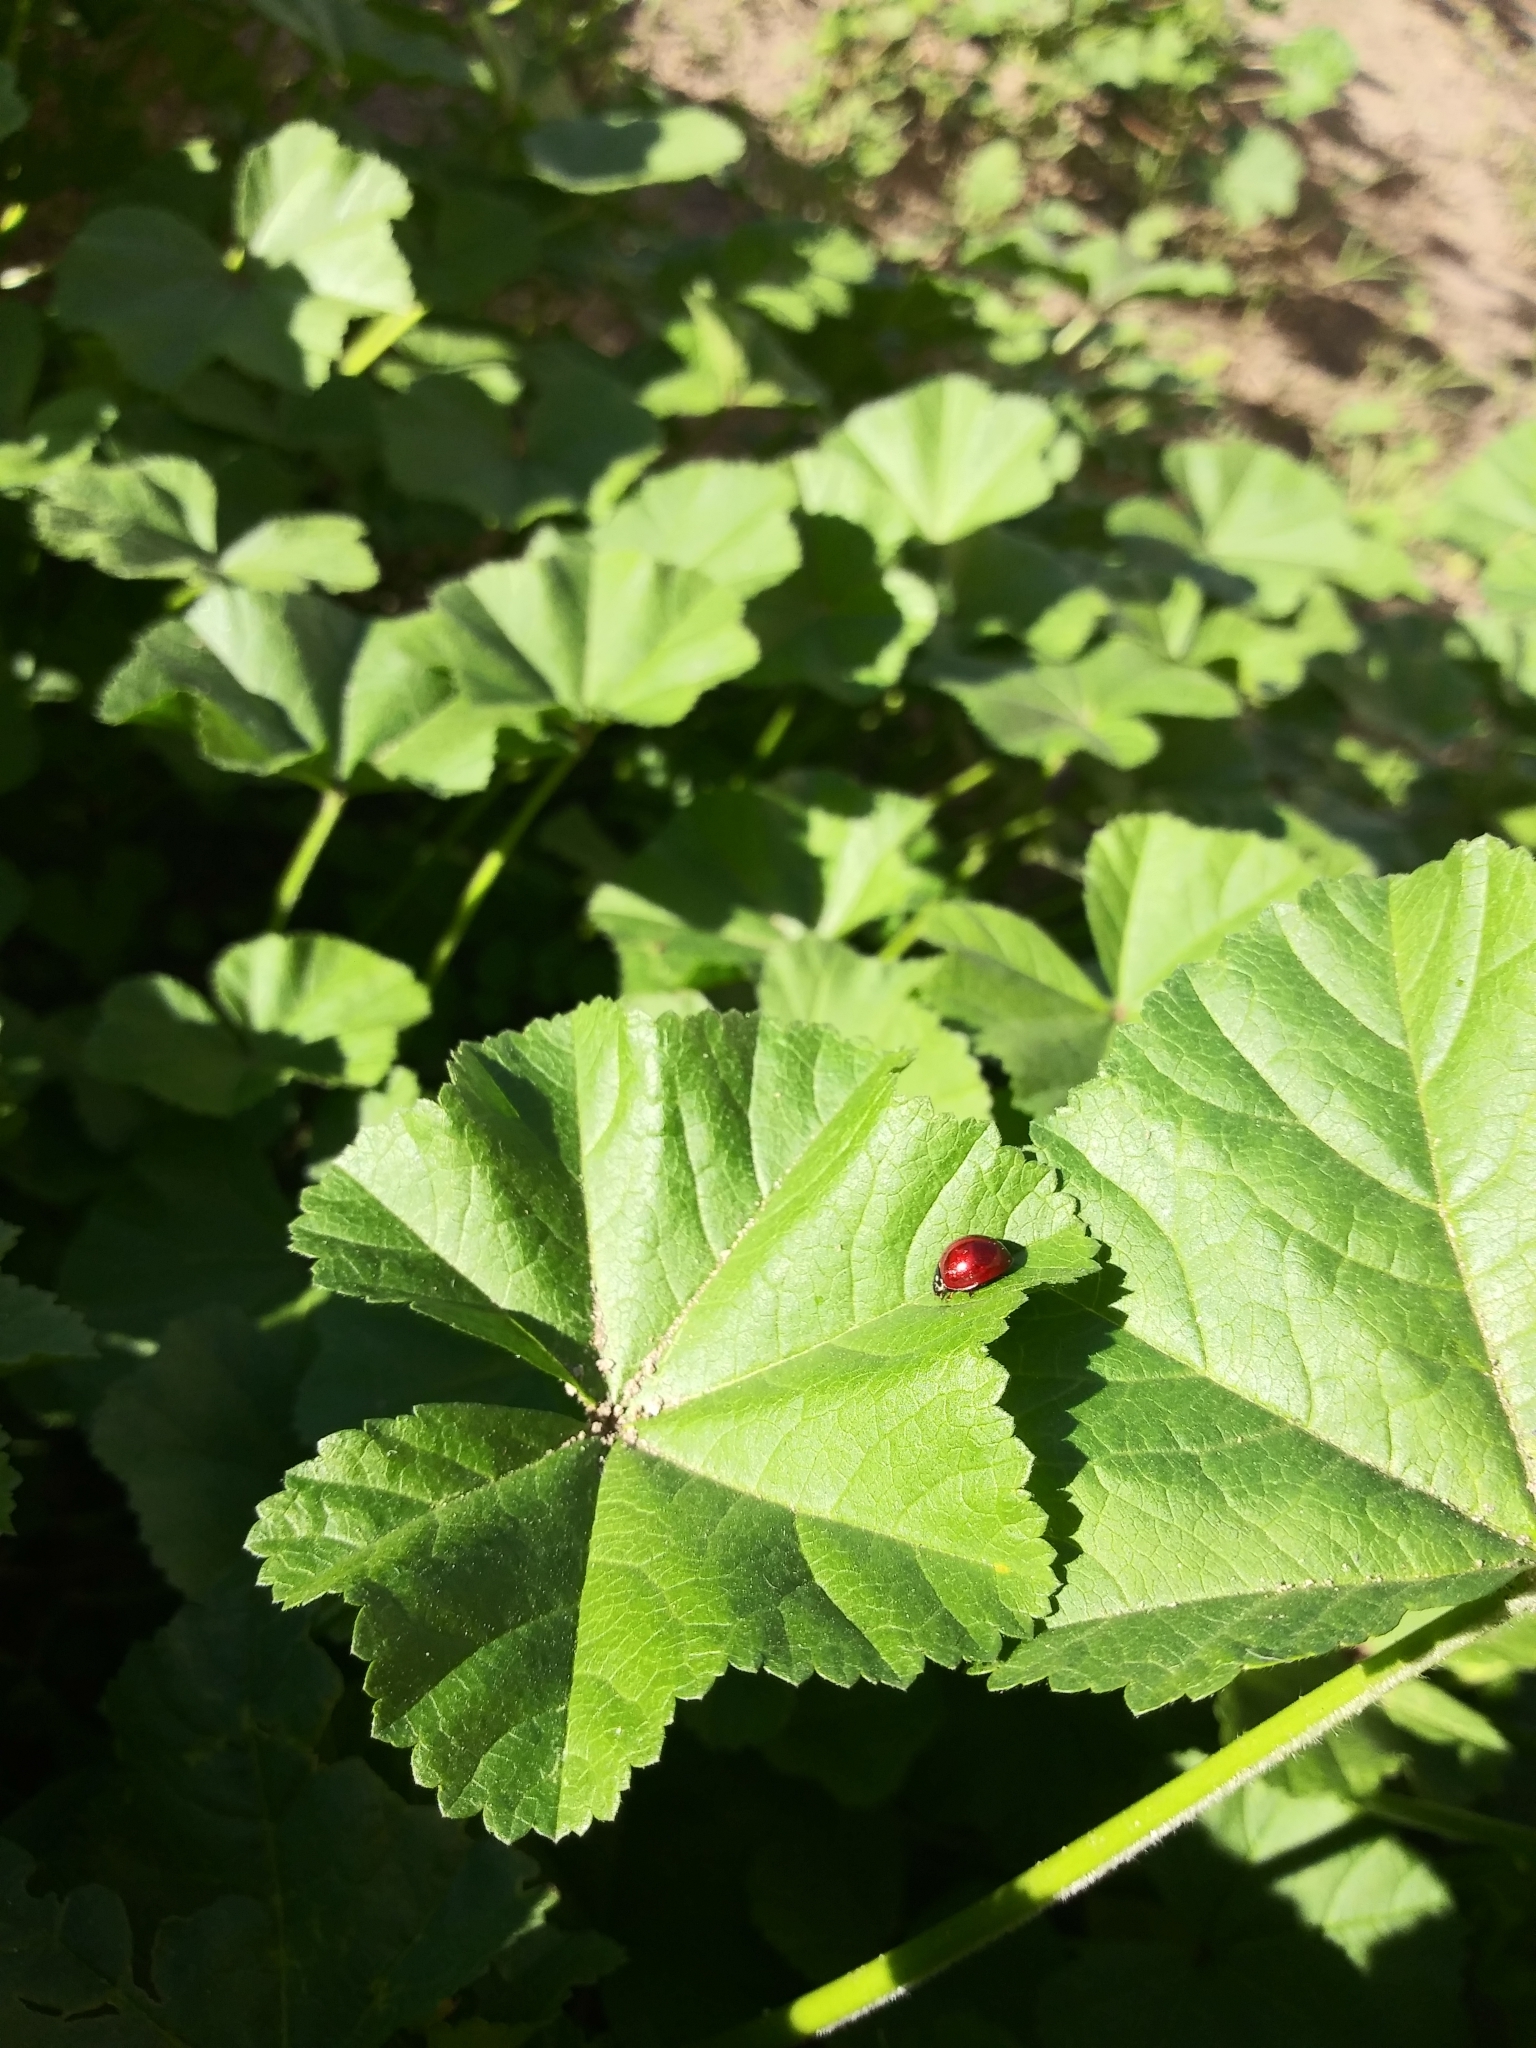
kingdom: Animalia
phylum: Arthropoda
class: Insecta
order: Coleoptera
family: Coccinellidae
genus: Cycloneda
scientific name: Cycloneda sanguinea
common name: Ladybird beetle
